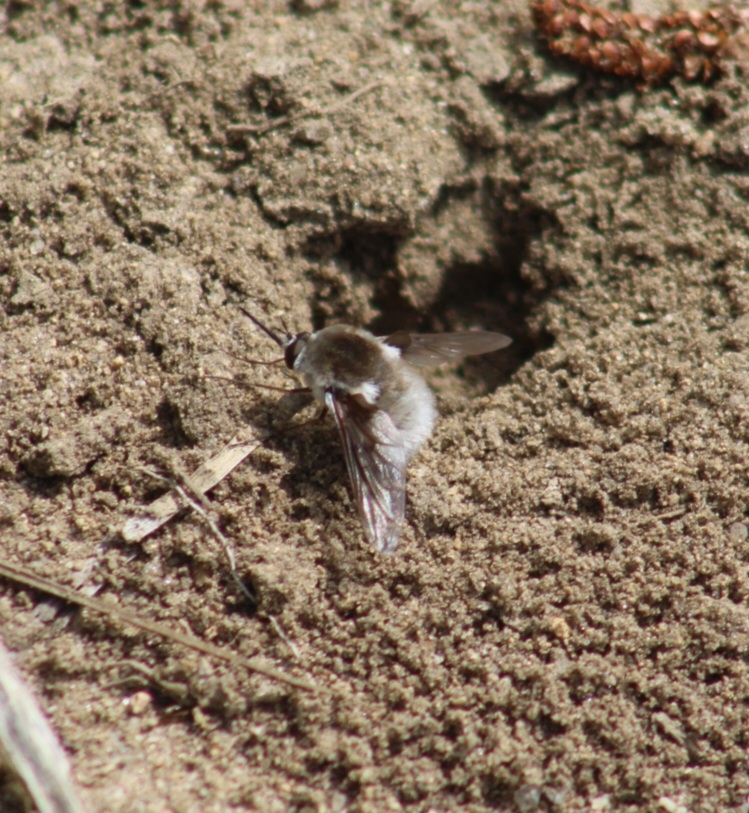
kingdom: Animalia
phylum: Arthropoda
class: Insecta
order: Diptera
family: Bombyliidae
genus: Bombylius
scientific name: Bombylius incanus
